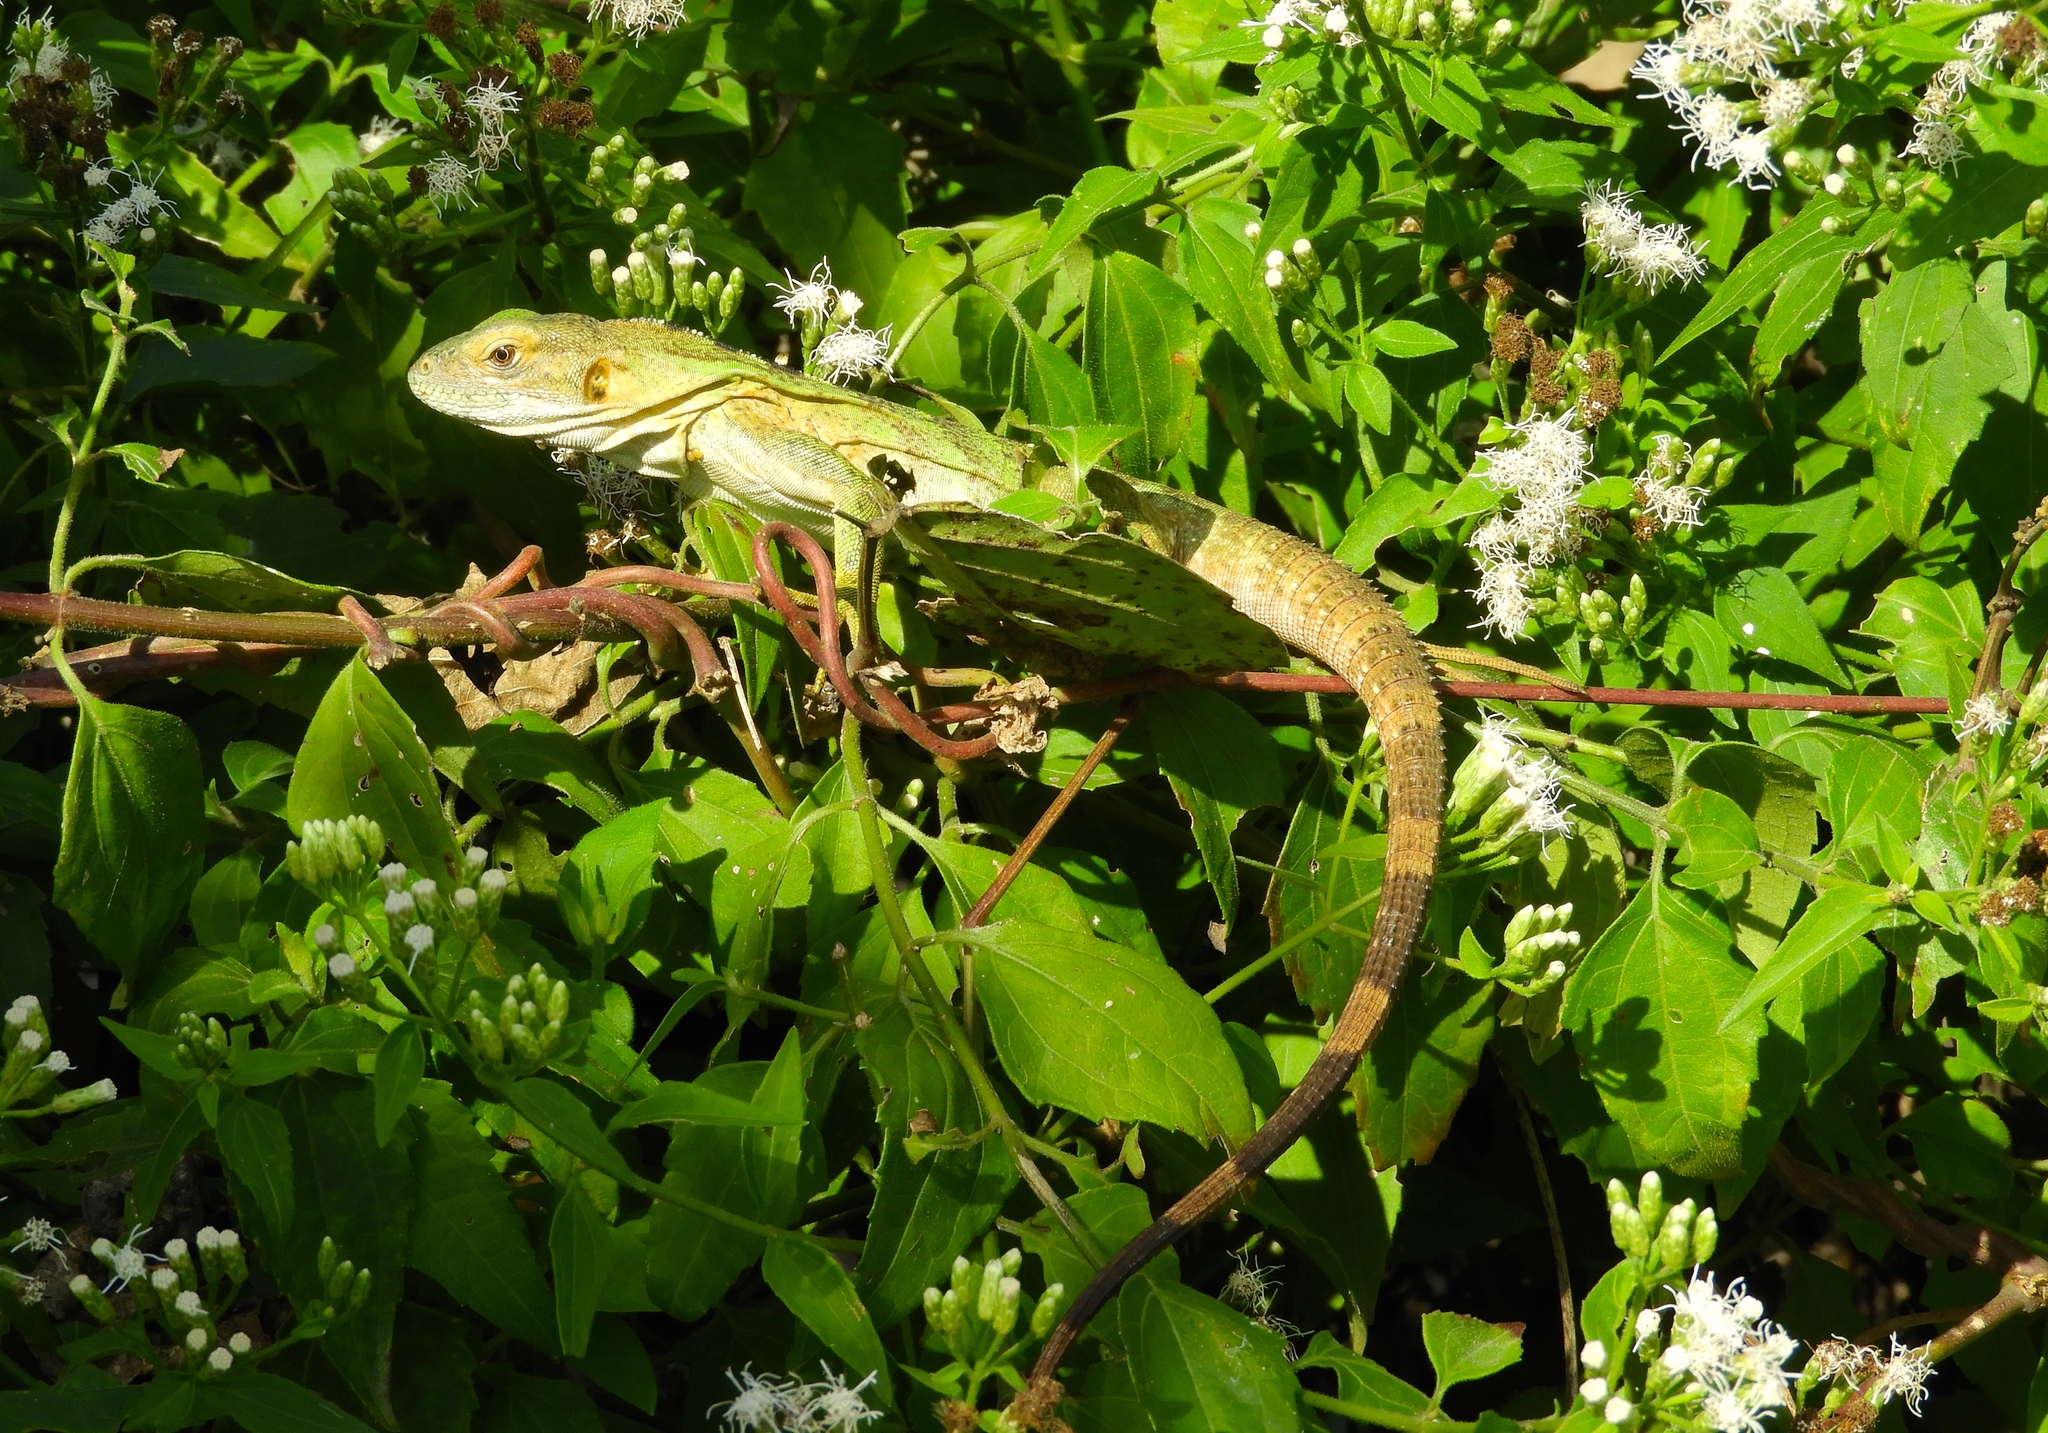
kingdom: Animalia
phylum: Chordata
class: Squamata
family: Iguanidae
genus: Ctenosaura
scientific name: Ctenosaura pectinata
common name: Guerreran spiny-tailed iguana
